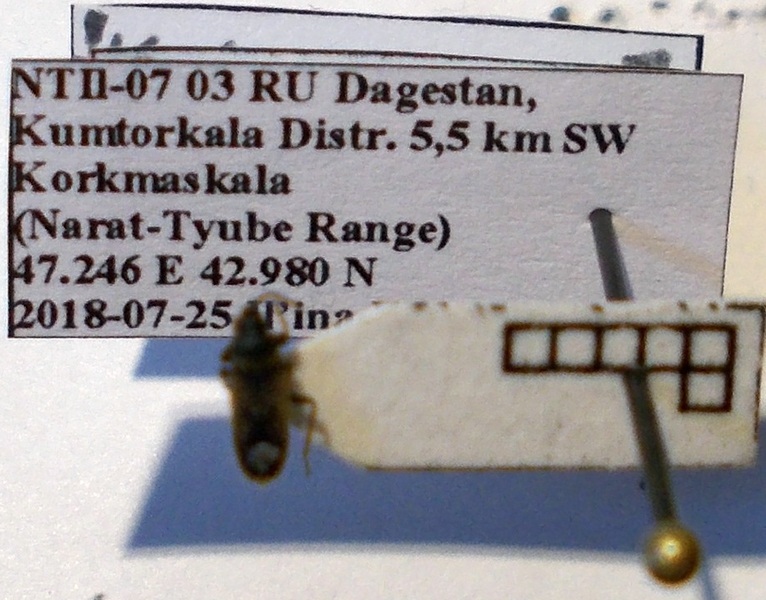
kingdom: Animalia
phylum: Arthropoda
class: Insecta
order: Hemiptera
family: Rhyparochromidae
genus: Pezocoris
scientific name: Pezocoris apicimacula
